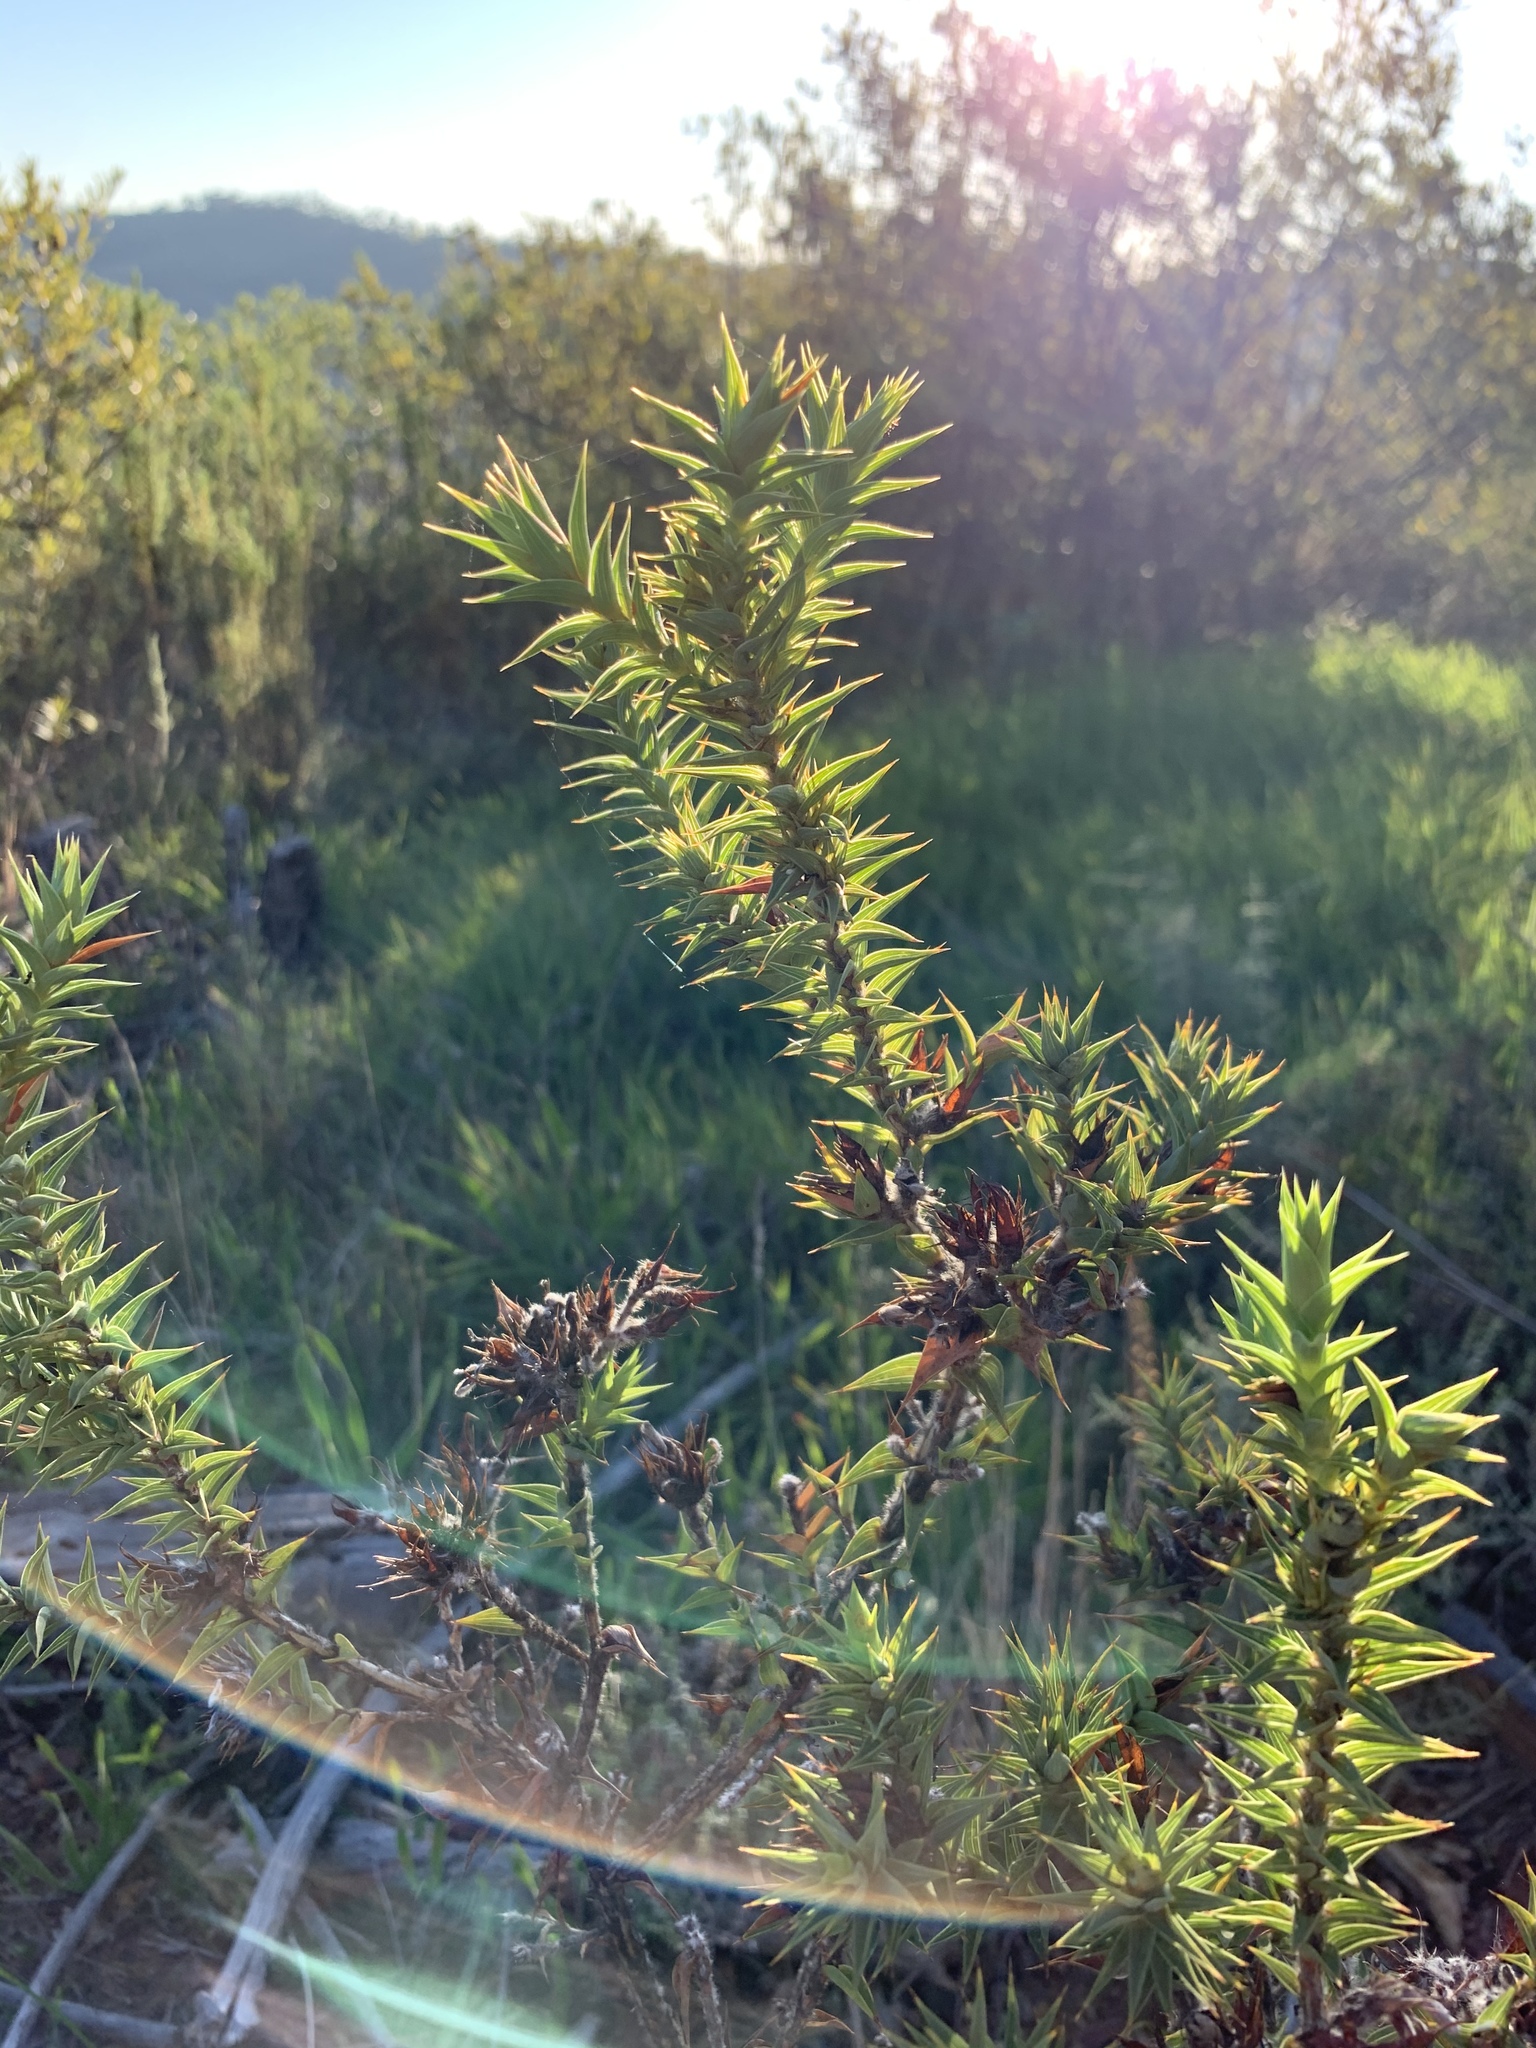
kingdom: Plantae
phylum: Tracheophyta
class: Magnoliopsida
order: Fabales
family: Fabaceae
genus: Aspalathus
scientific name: Aspalathus cordata
